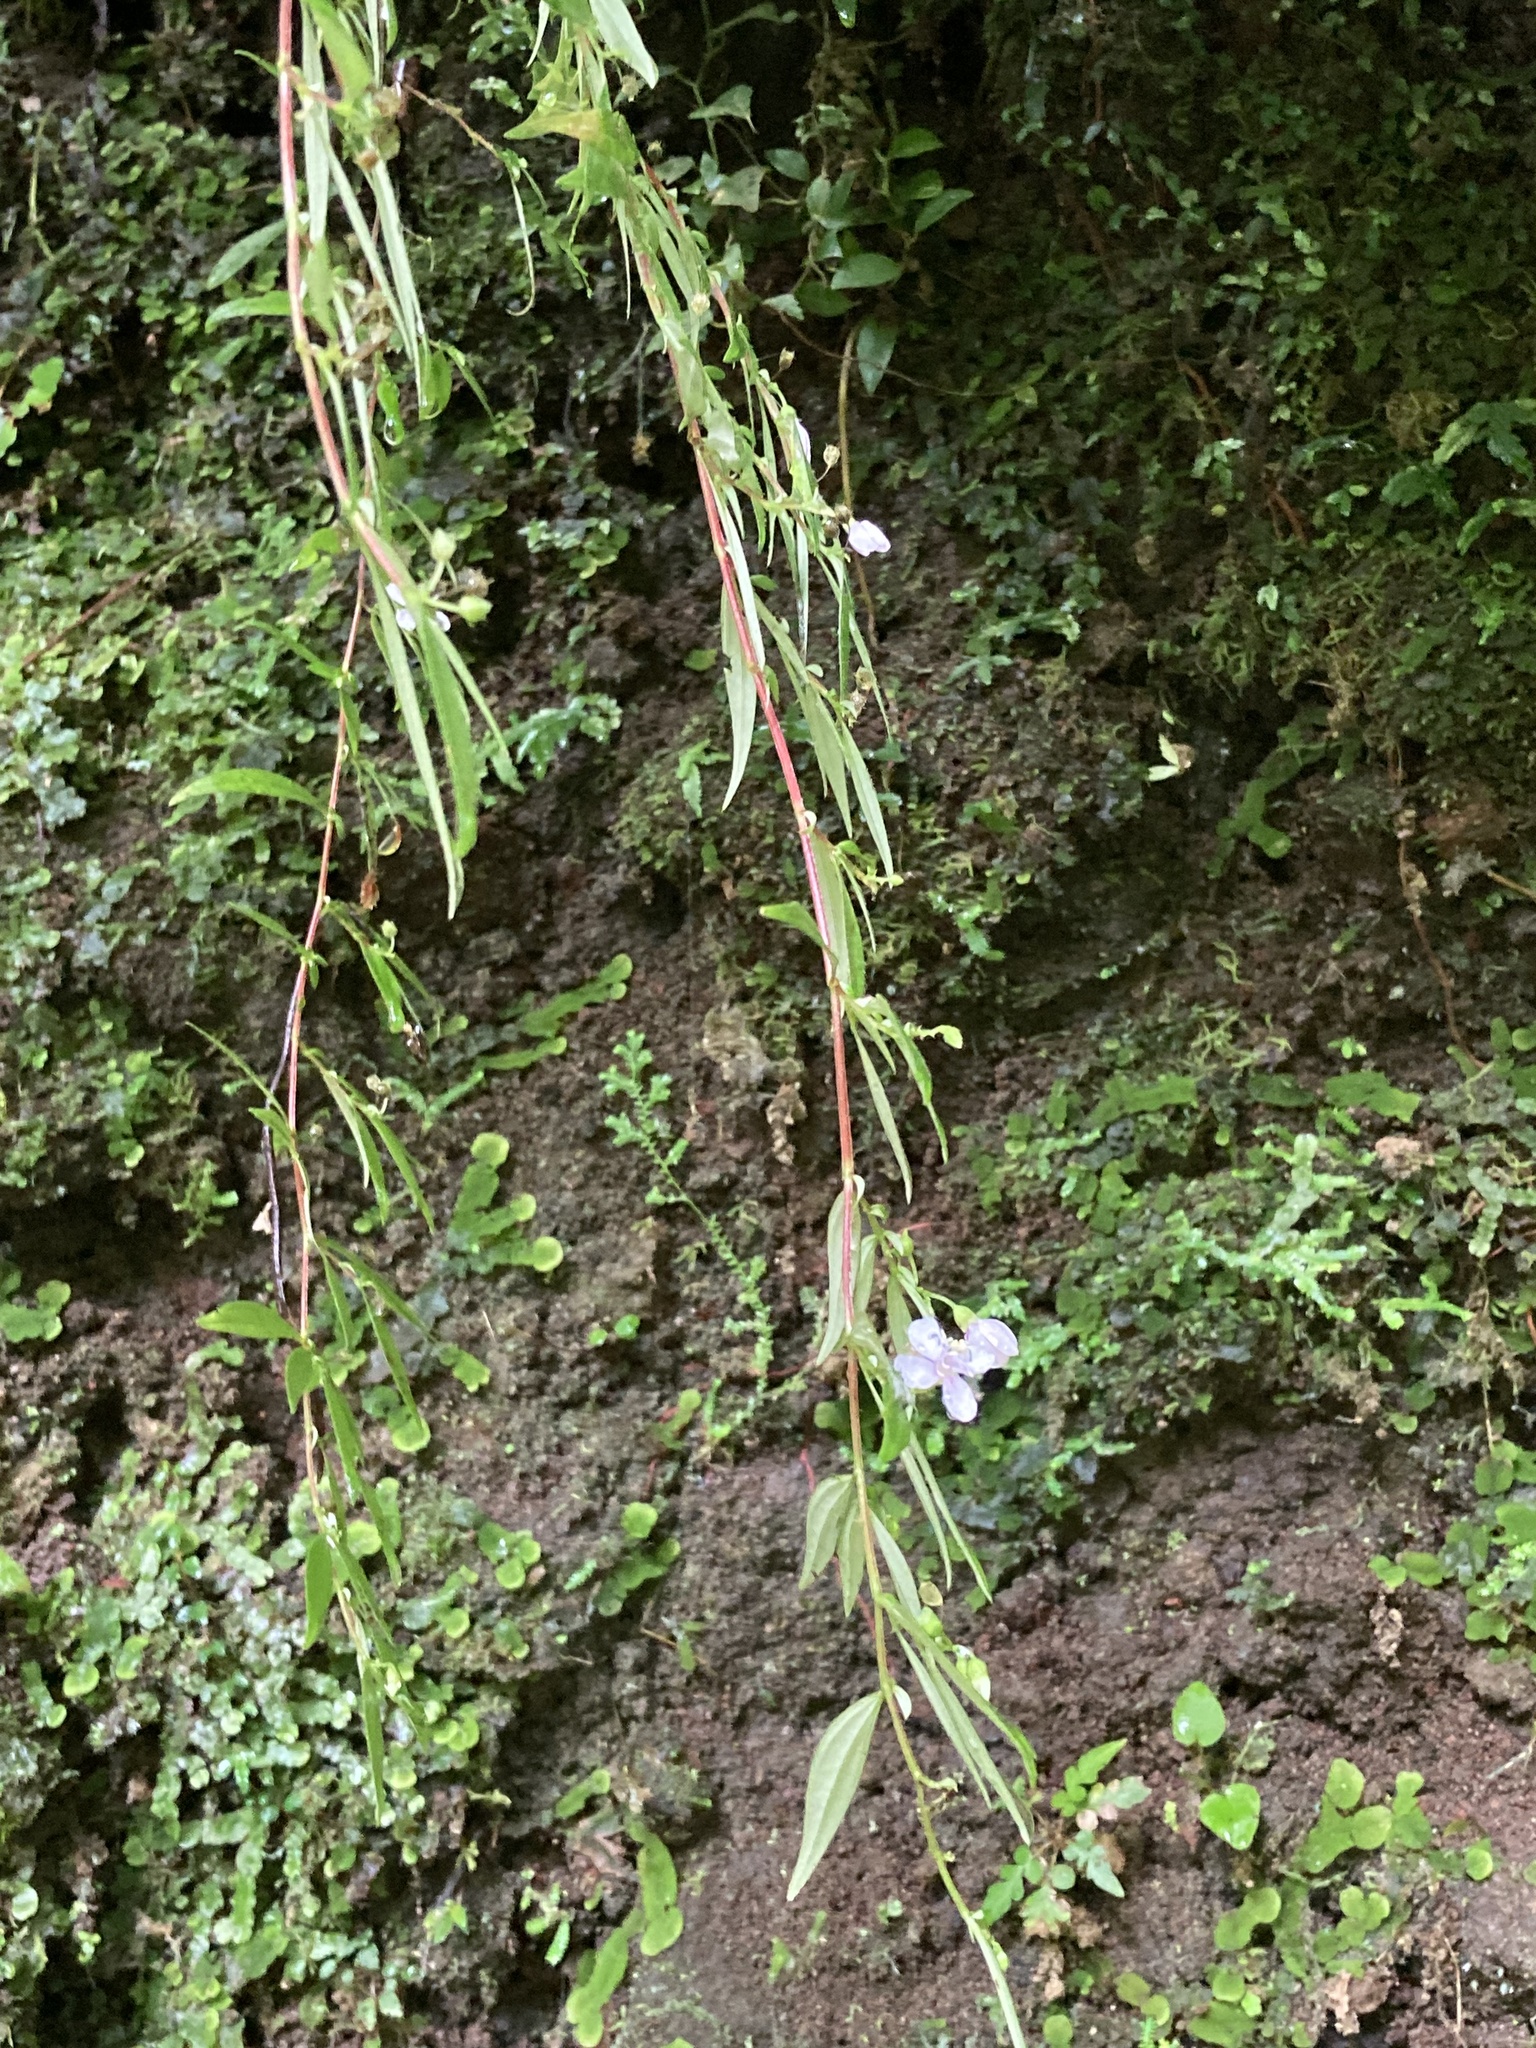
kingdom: Plantae
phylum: Tracheophyta
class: Magnoliopsida
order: Myrtales
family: Melastomataceae
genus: Centradenia
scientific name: Centradenia inaequilateralis
